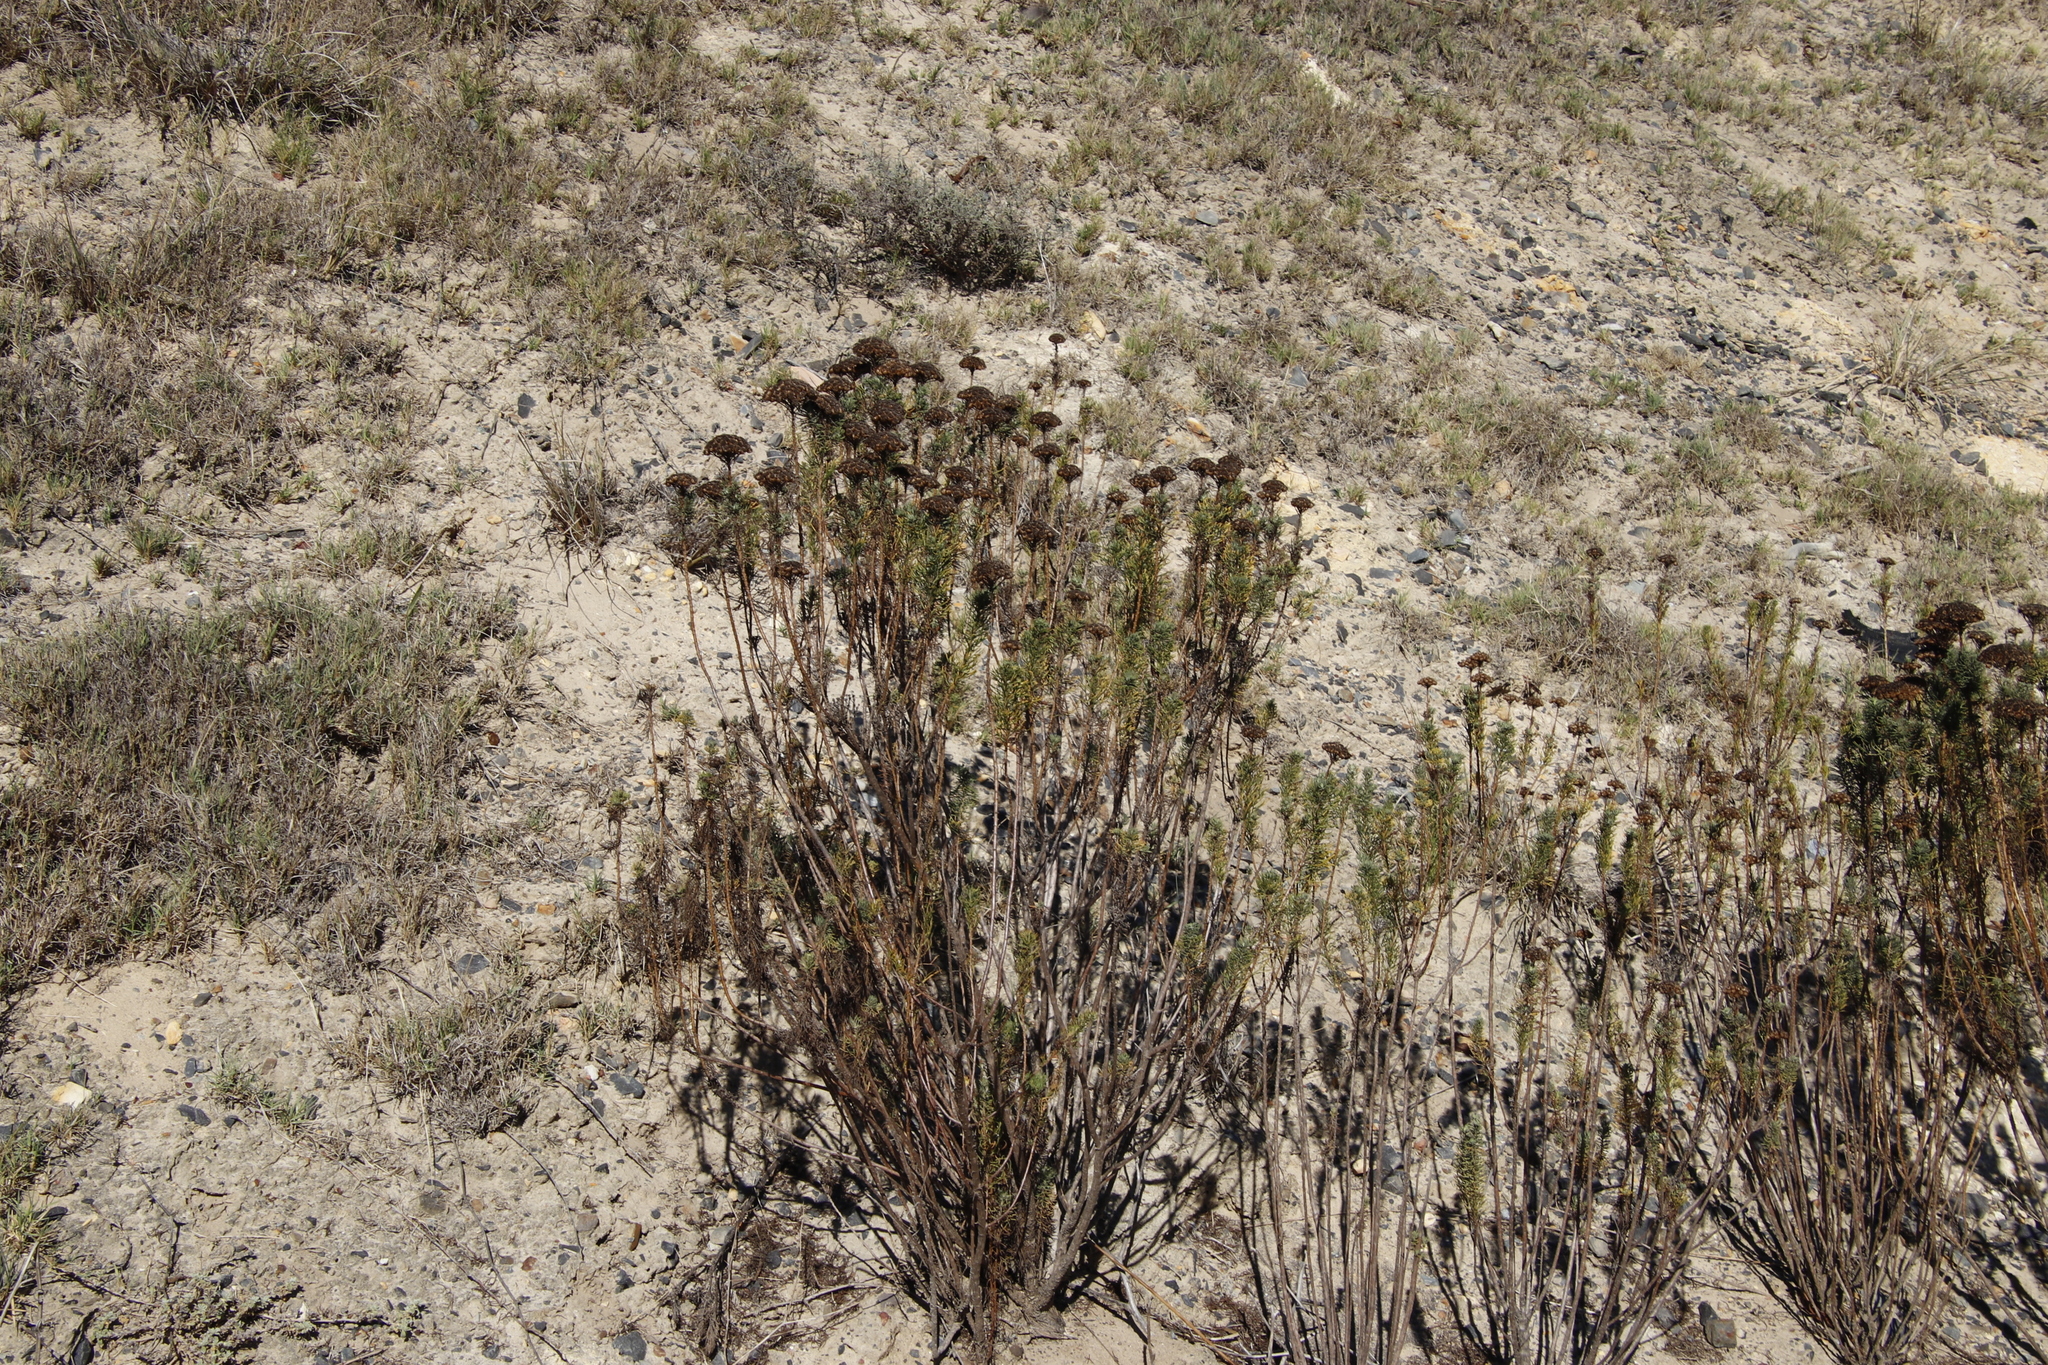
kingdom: Plantae
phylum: Tracheophyta
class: Magnoliopsida
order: Asterales
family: Asteraceae
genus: Athanasia
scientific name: Athanasia crithmifolia
